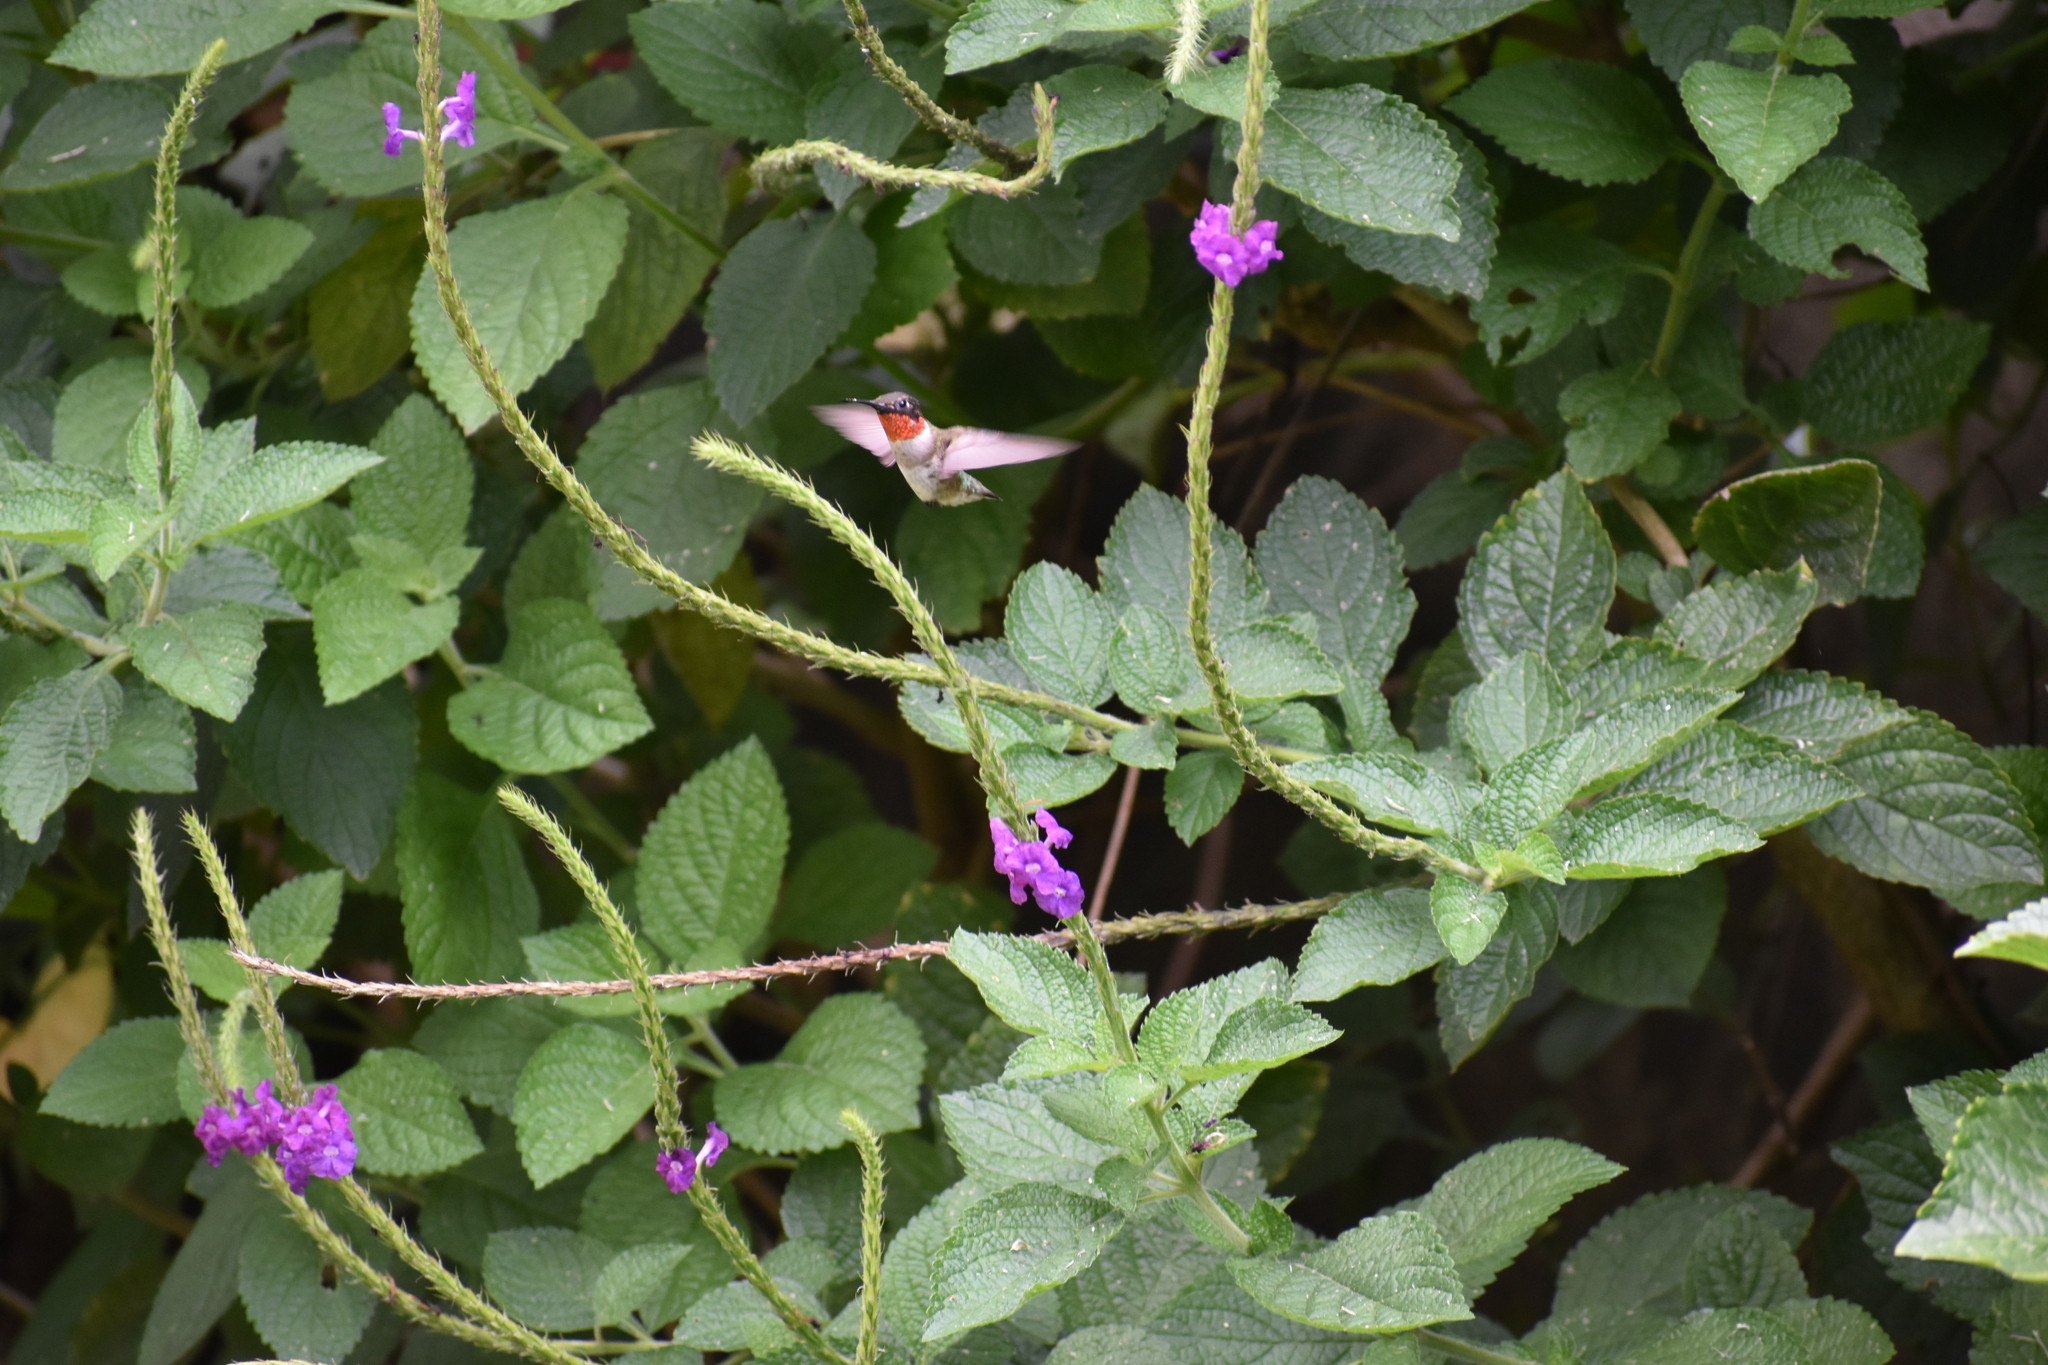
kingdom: Animalia
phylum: Chordata
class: Aves
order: Apodiformes
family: Trochilidae
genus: Archilochus
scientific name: Archilochus colubris
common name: Ruby-throated hummingbird
